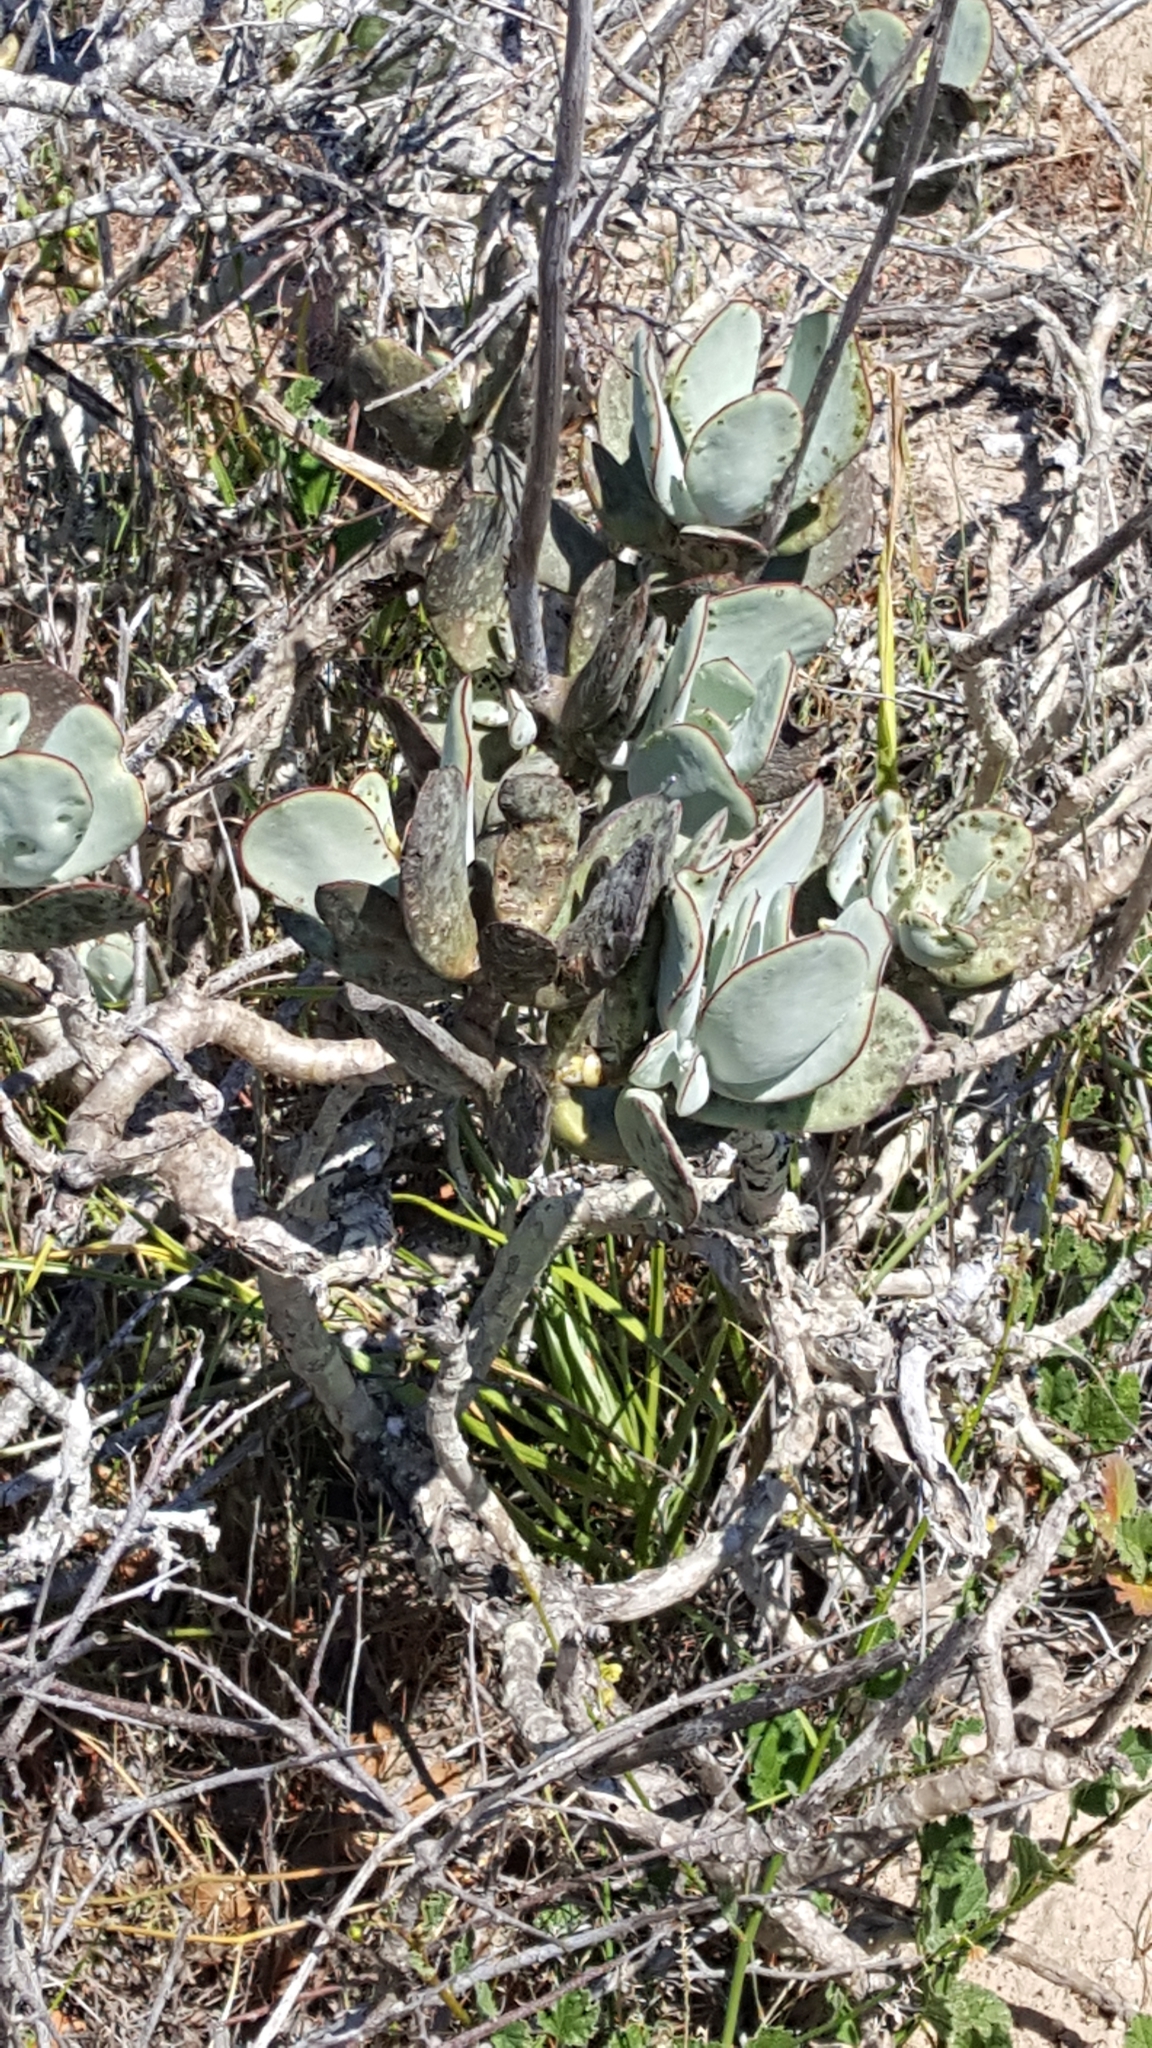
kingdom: Plantae
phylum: Tracheophyta
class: Magnoliopsida
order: Saxifragales
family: Crassulaceae
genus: Cotyledon
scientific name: Cotyledon orbiculata
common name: Pig's ear
